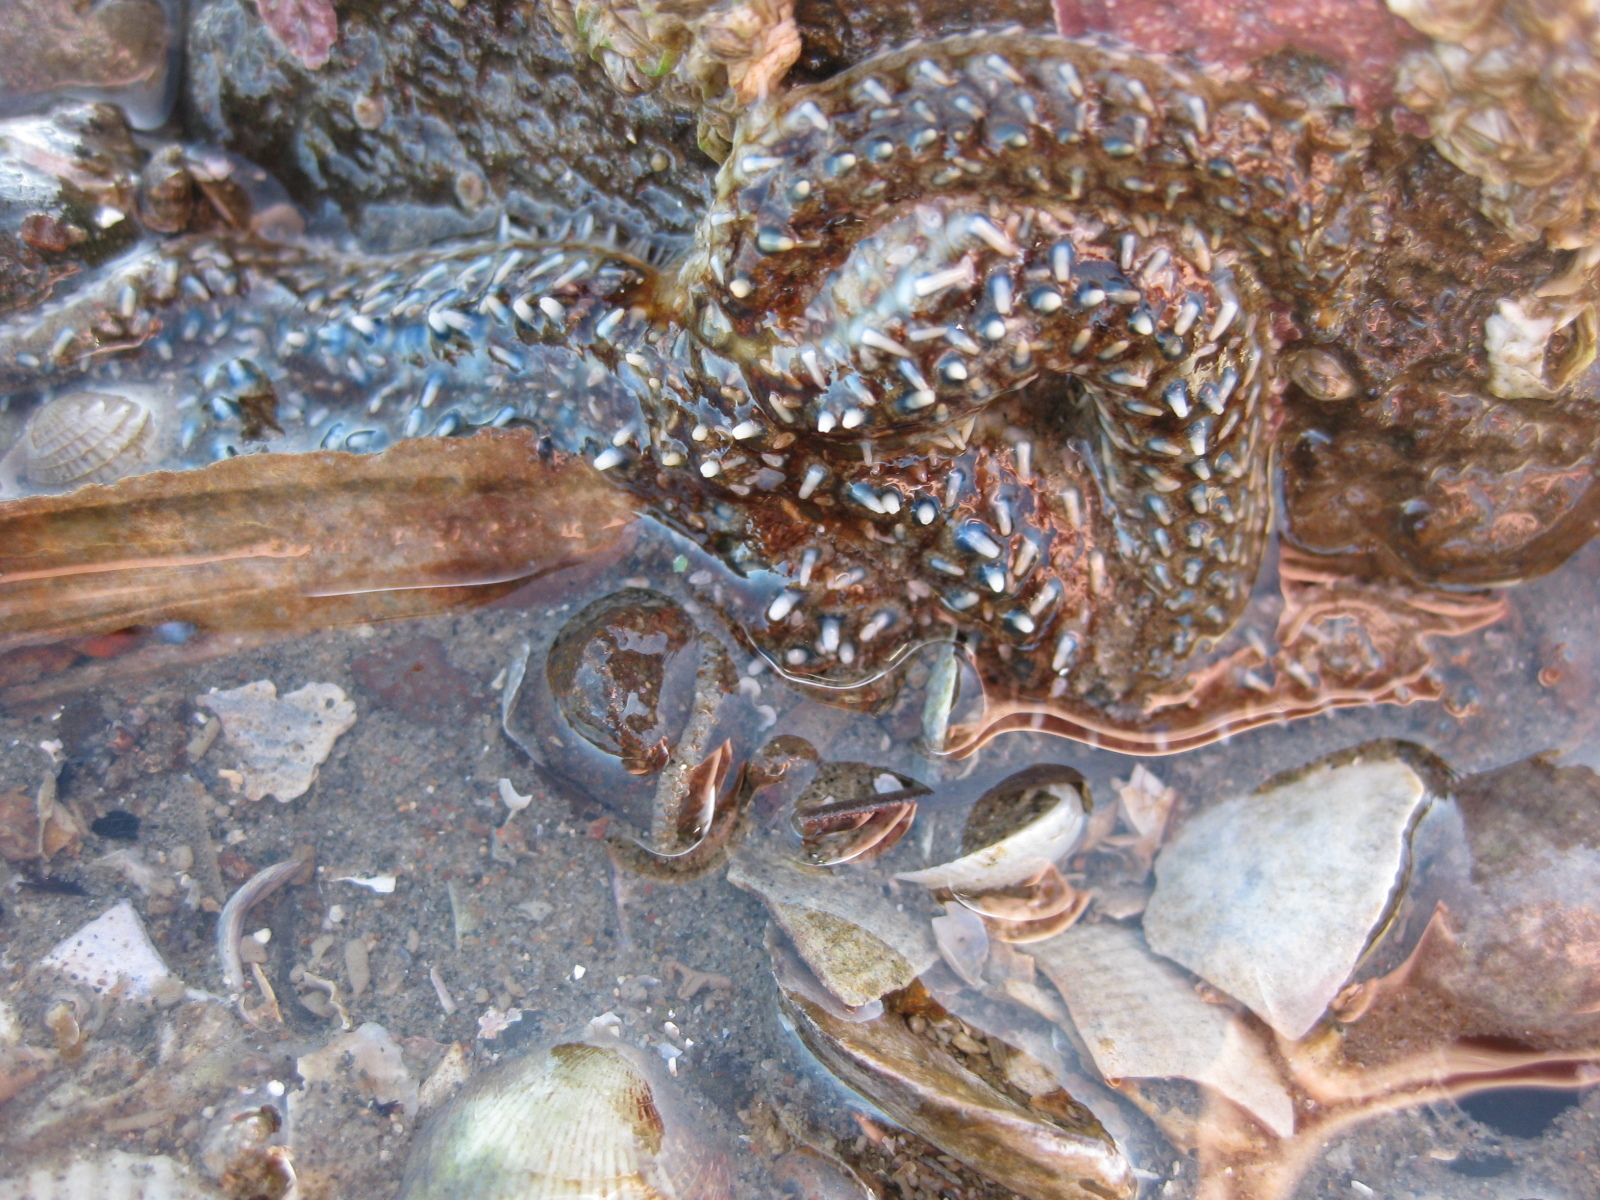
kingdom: Animalia
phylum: Echinodermata
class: Asteroidea
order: Forcipulatida
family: Asteriidae
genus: Coscinasterias
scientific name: Coscinasterias muricata
